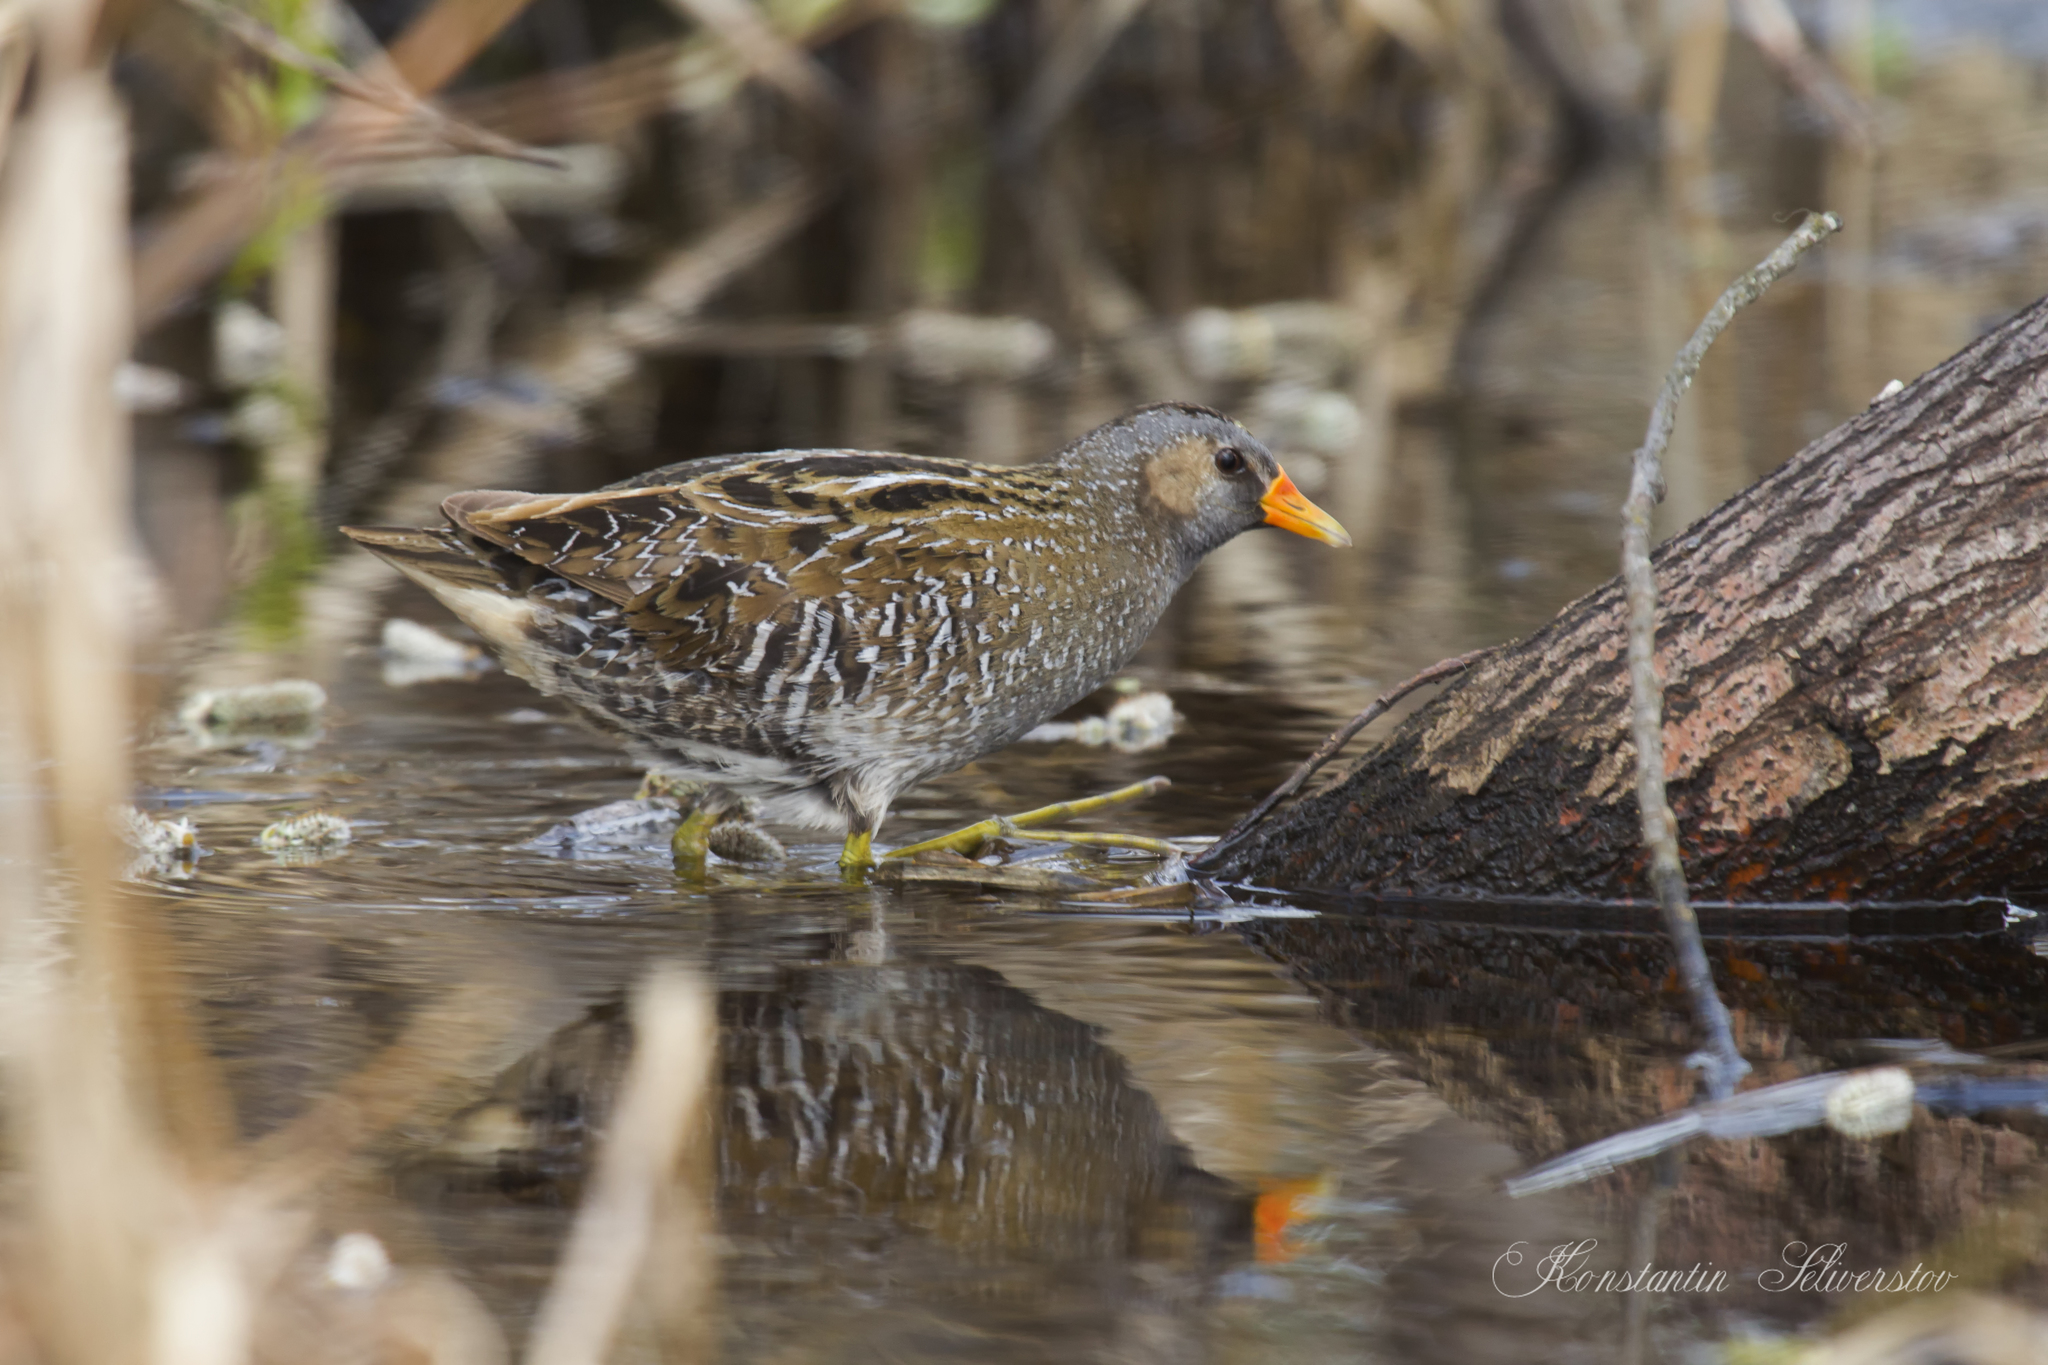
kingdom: Animalia
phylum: Chordata
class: Aves
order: Gruiformes
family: Rallidae
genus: Porzana
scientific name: Porzana porzana
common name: Spotted crake
